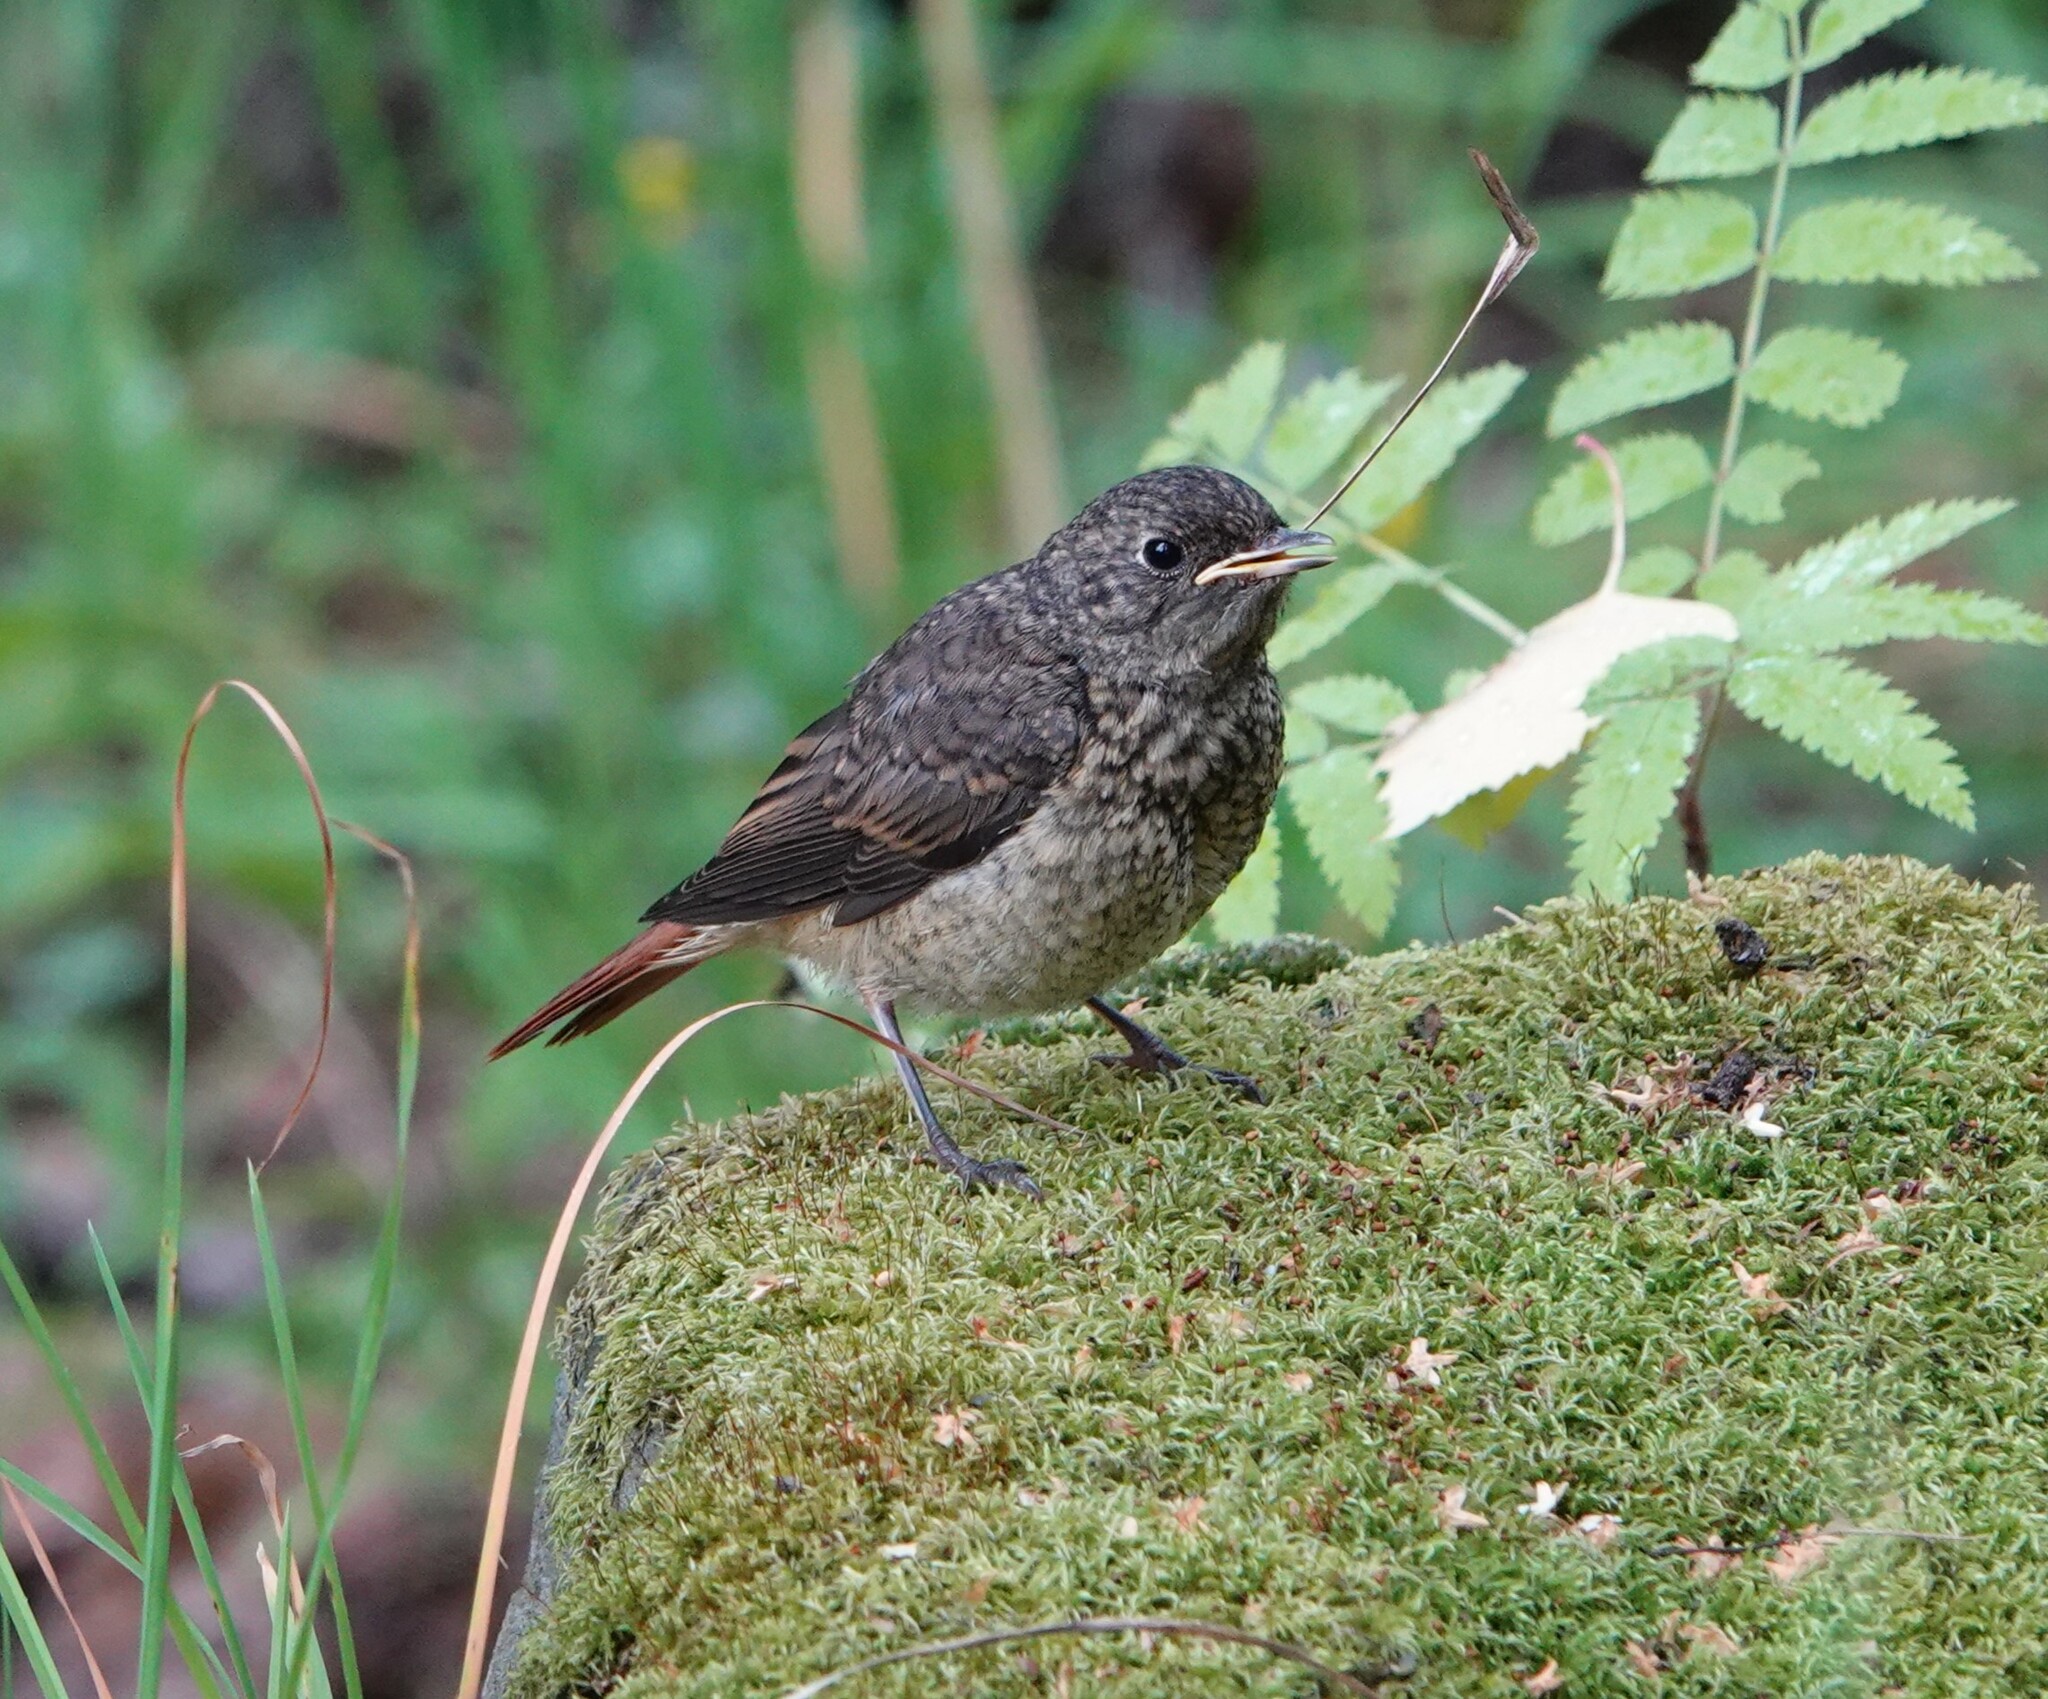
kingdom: Animalia
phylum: Chordata
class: Aves
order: Passeriformes
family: Muscicapidae
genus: Phoenicurus
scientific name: Phoenicurus phoenicurus
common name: Common redstart
